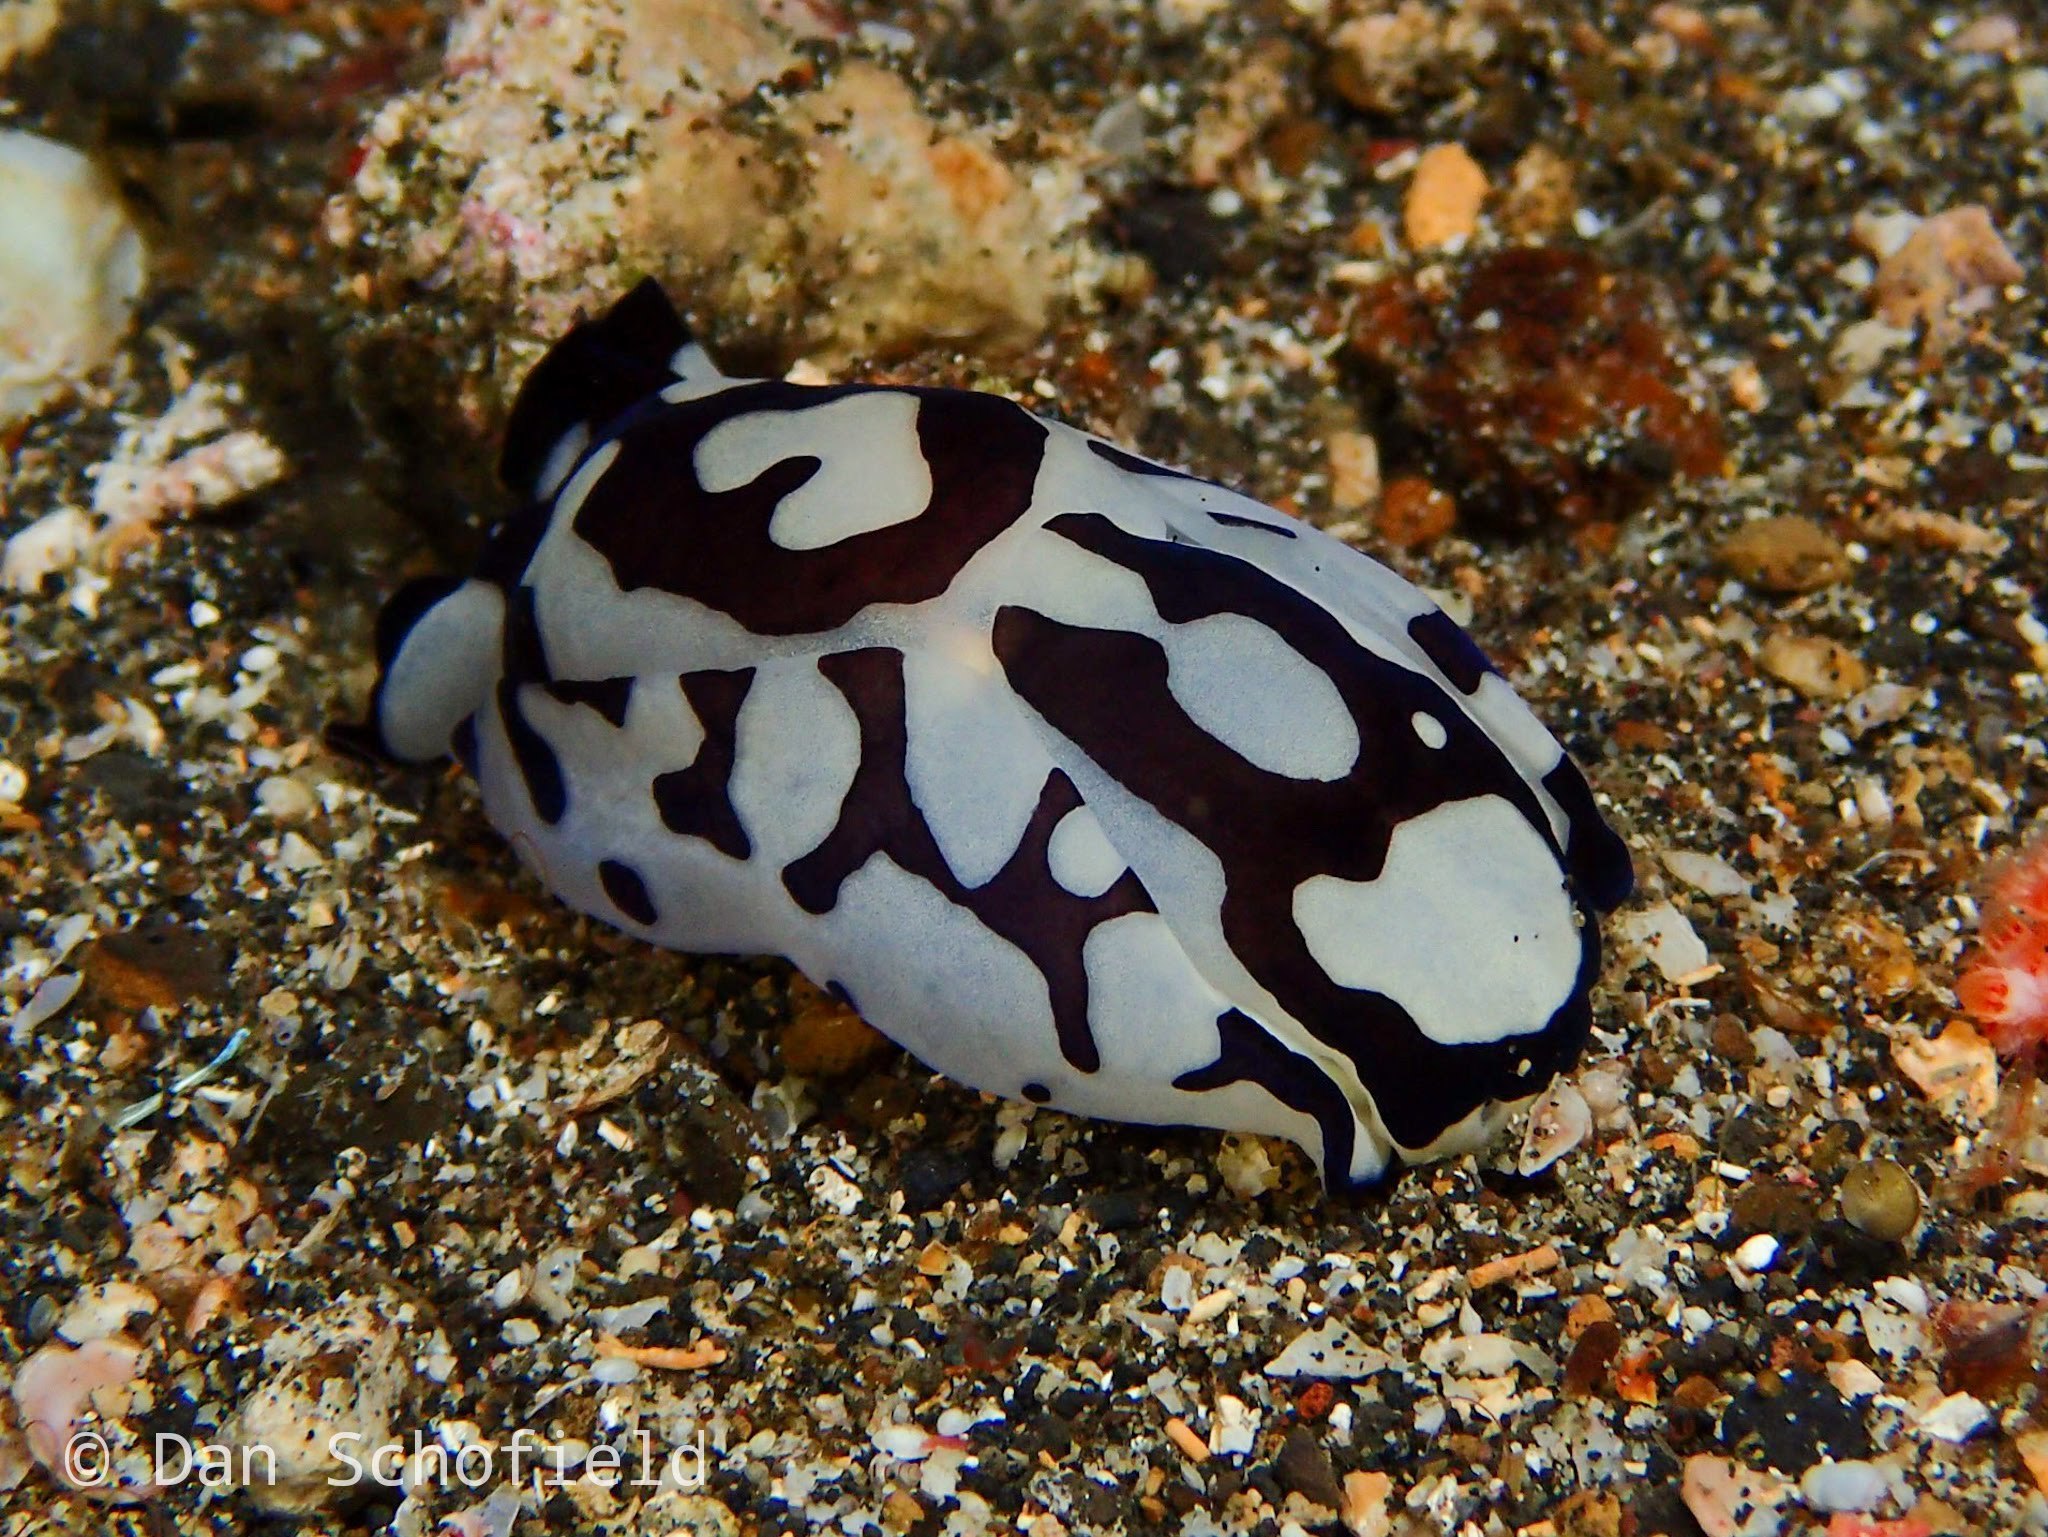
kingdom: Animalia
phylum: Mollusca
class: Gastropoda
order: Cephalaspidea
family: Aglajidae
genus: Tubulophilinopsis
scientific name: Tubulophilinopsis pilsbryi
